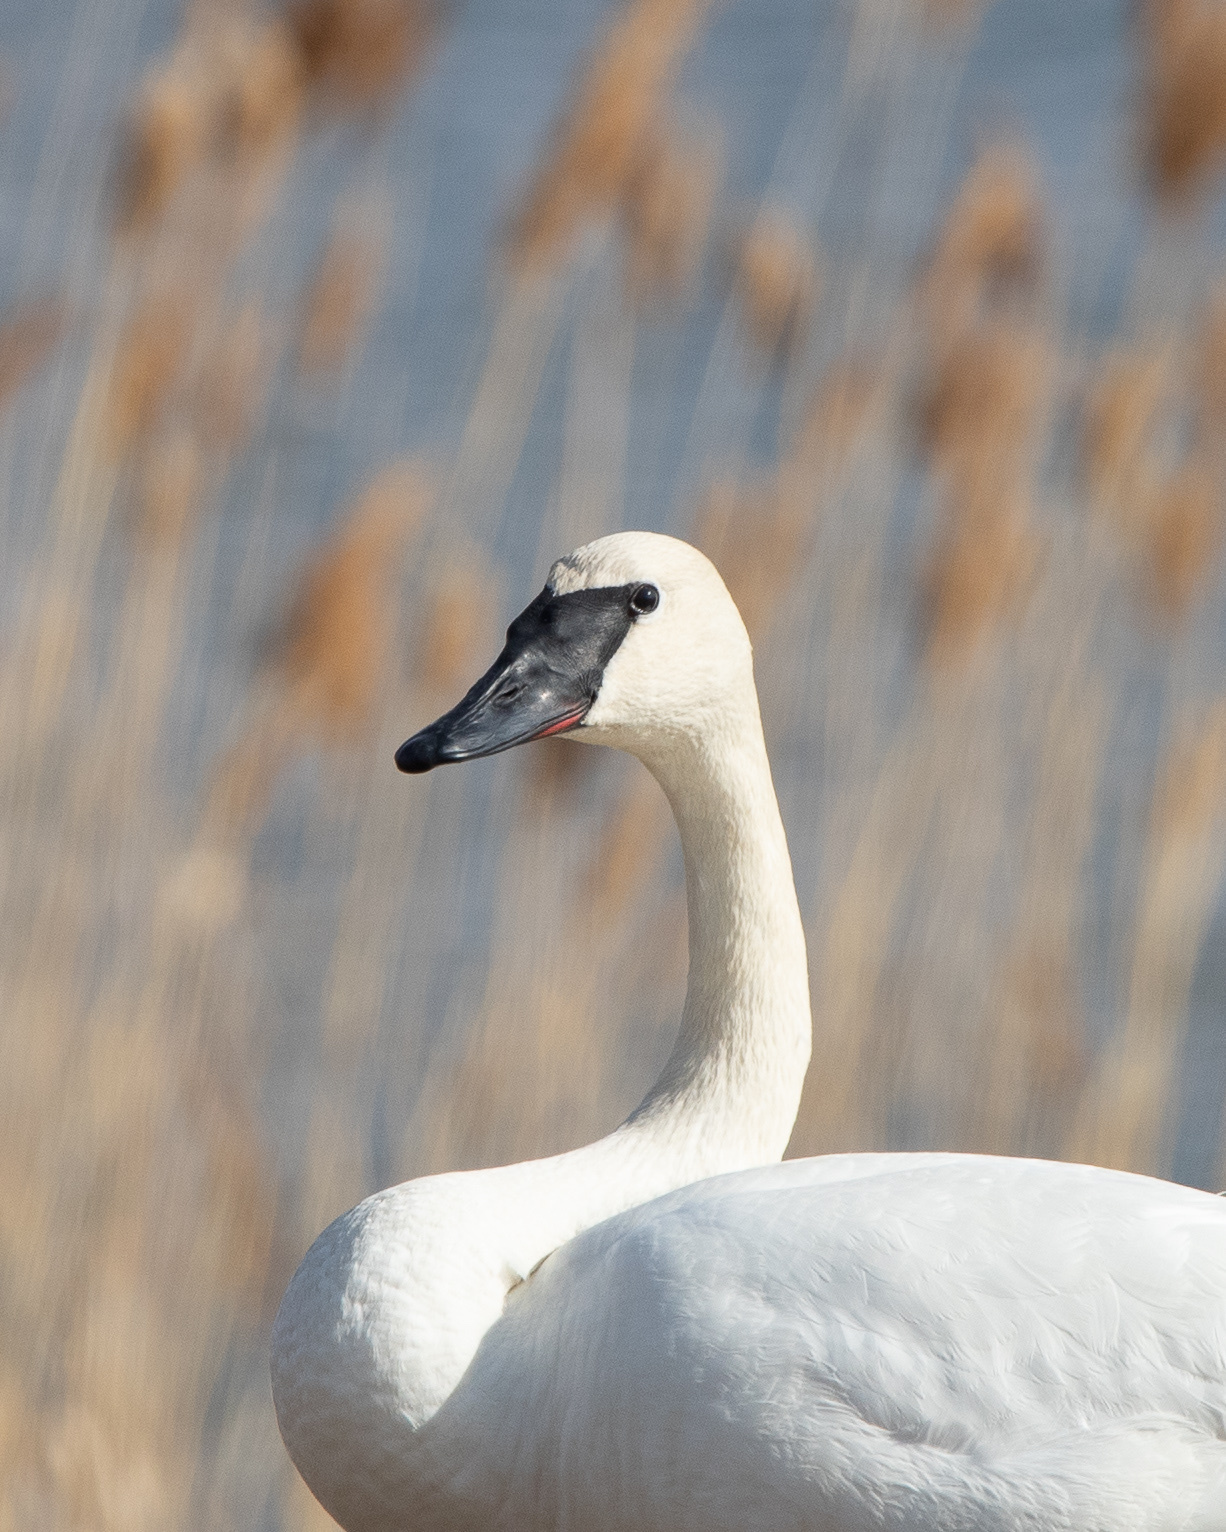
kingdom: Animalia
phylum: Chordata
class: Aves
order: Anseriformes
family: Anatidae
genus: Cygnus
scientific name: Cygnus buccinator
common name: Trumpeter swan
